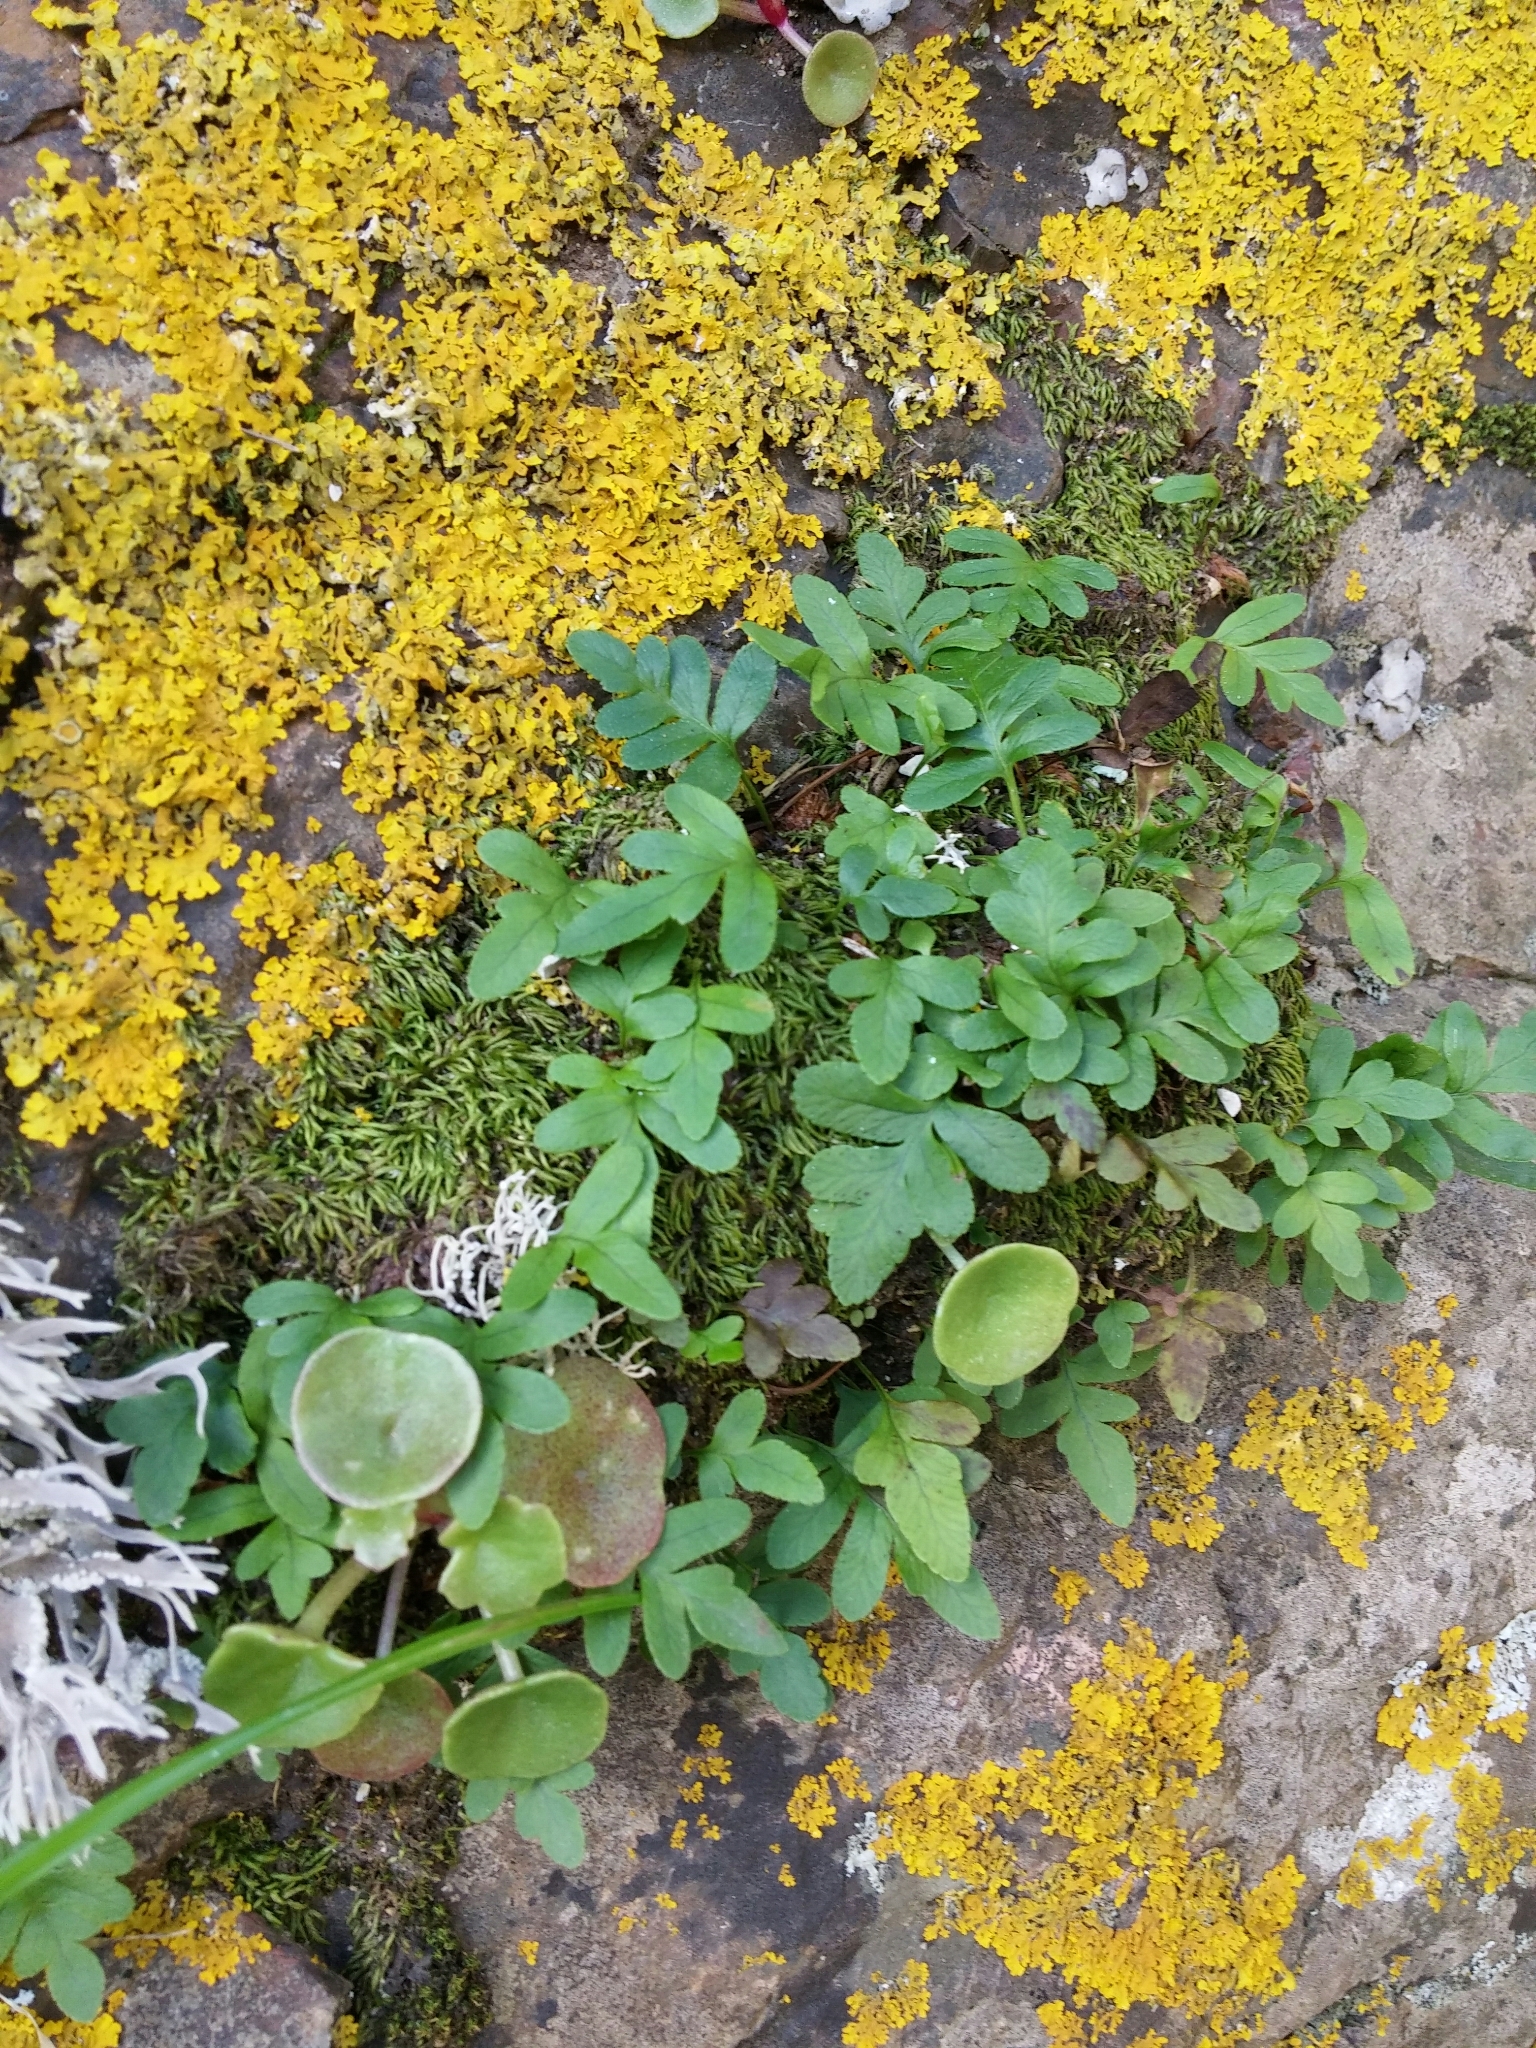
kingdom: Plantae
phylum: Tracheophyta
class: Magnoliopsida
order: Saxifragales
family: Crassulaceae
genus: Umbilicus
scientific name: Umbilicus rupestris
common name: Navelwort
